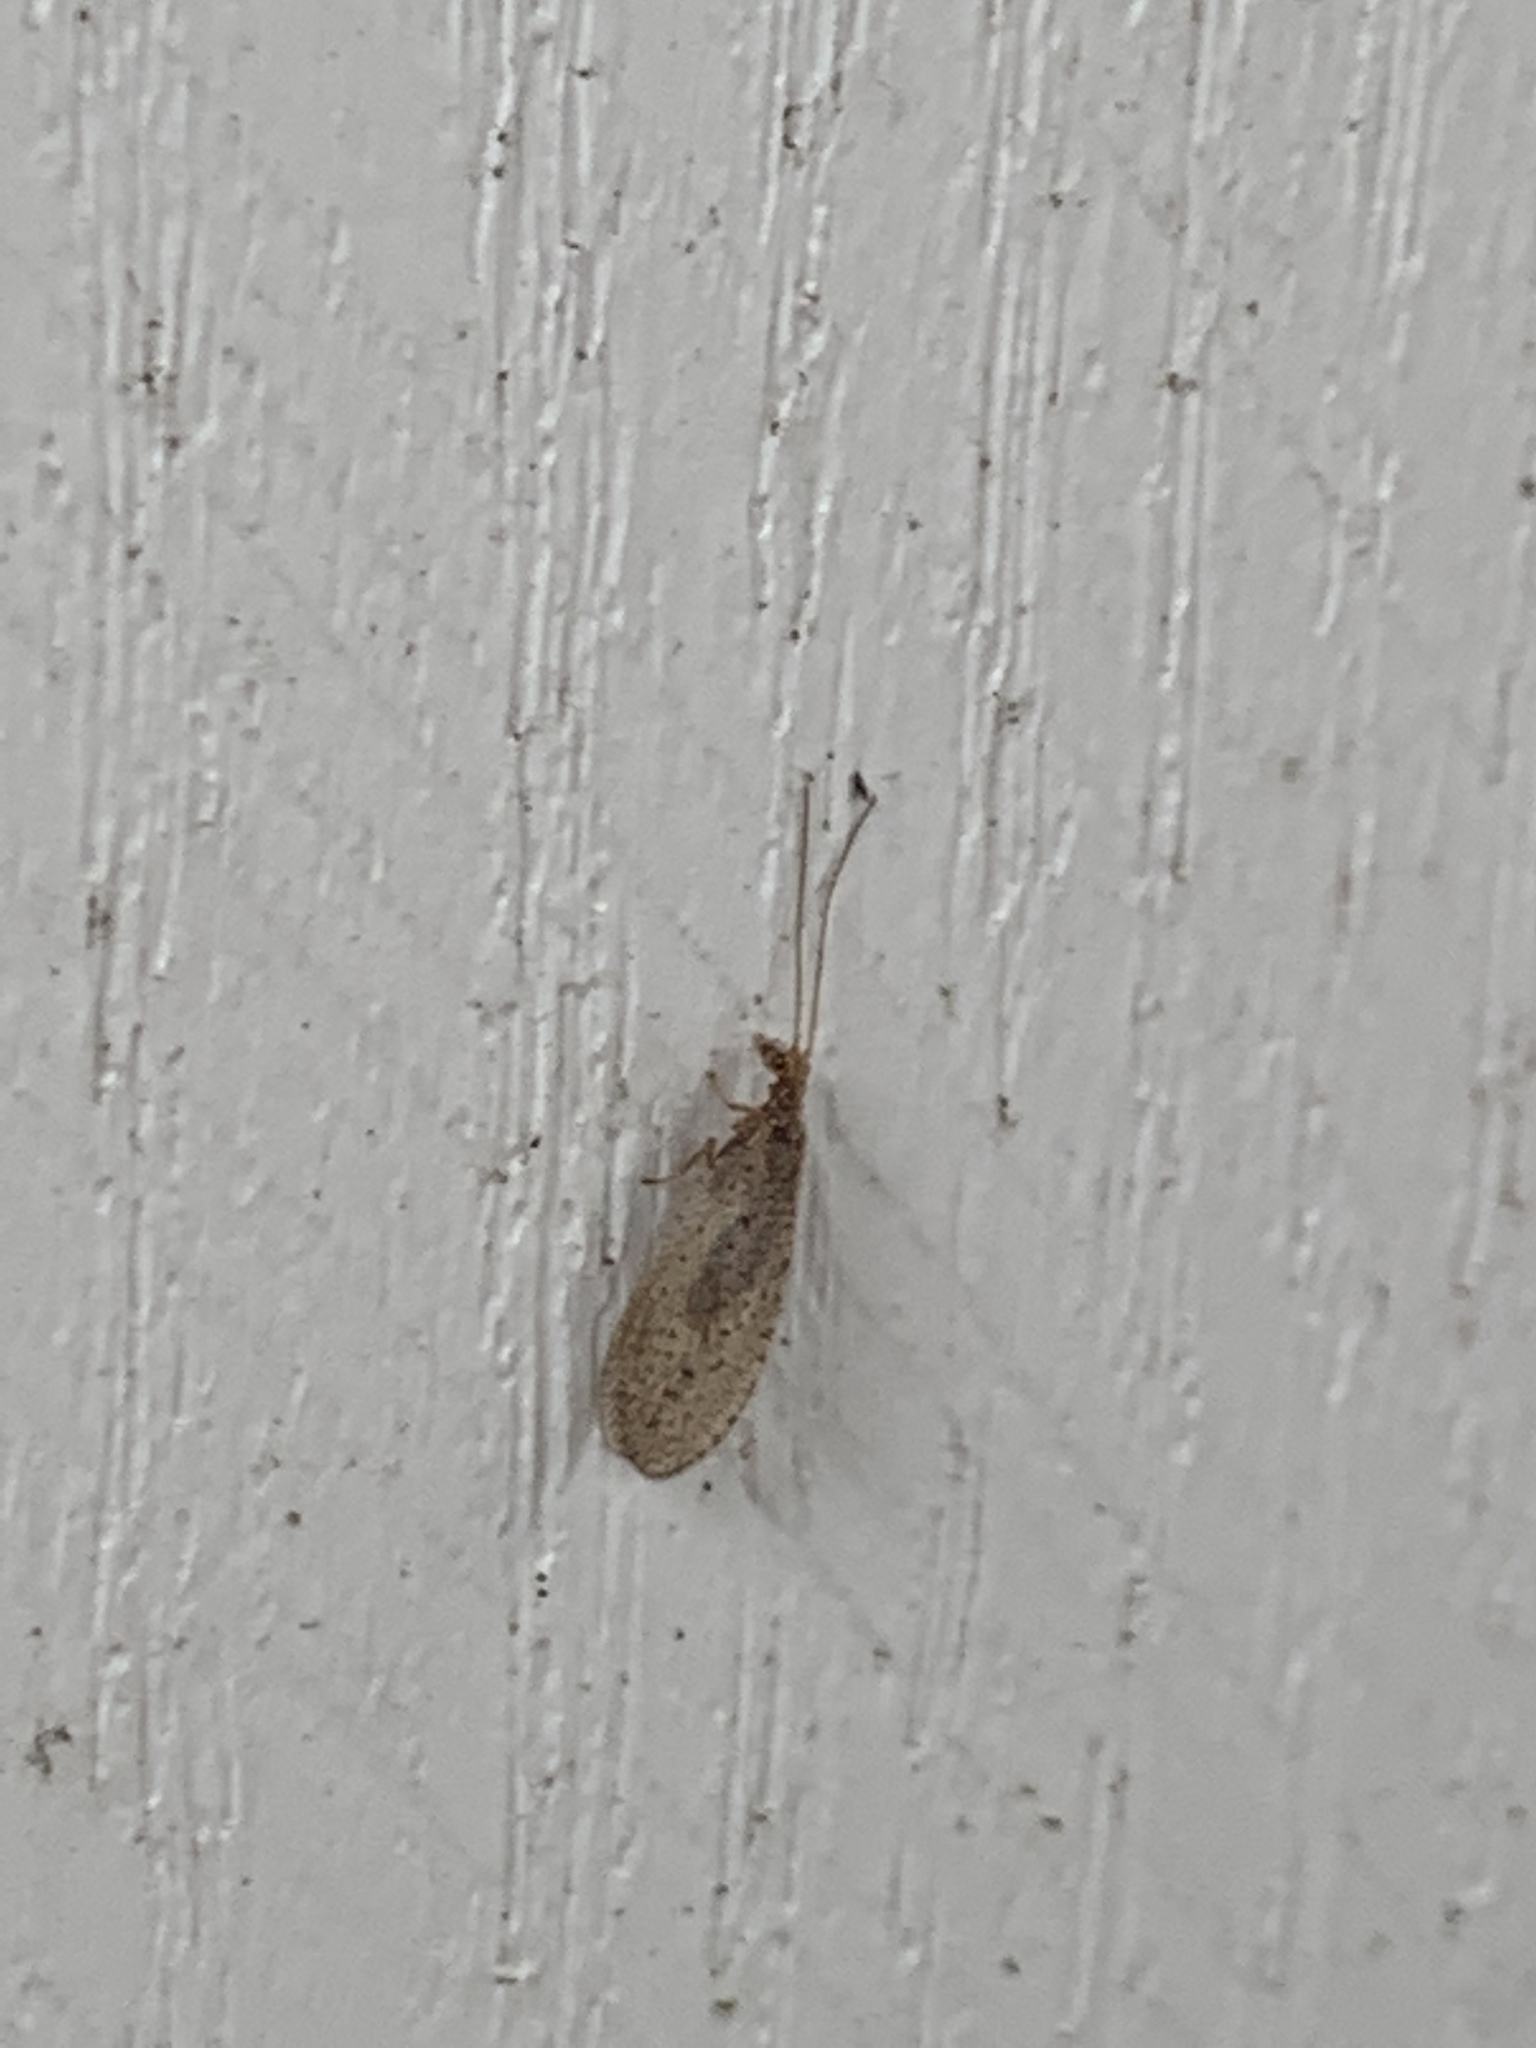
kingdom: Animalia
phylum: Arthropoda
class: Insecta
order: Neuroptera
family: Hemerobiidae
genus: Micromus
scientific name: Micromus subanticus
